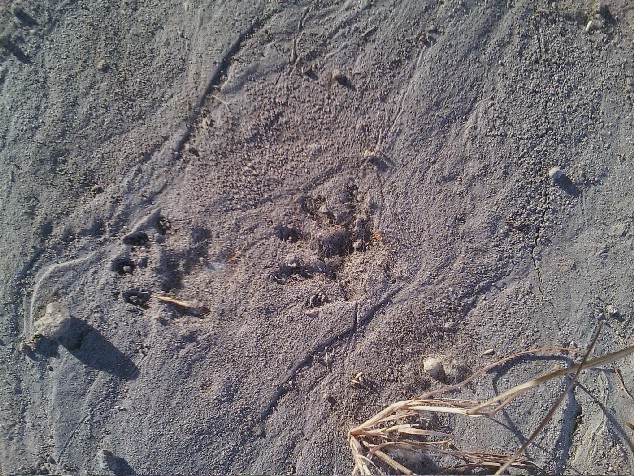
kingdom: Animalia
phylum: Chordata
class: Mammalia
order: Carnivora
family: Procyonidae
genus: Procyon
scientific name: Procyon lotor
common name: Raccoon
